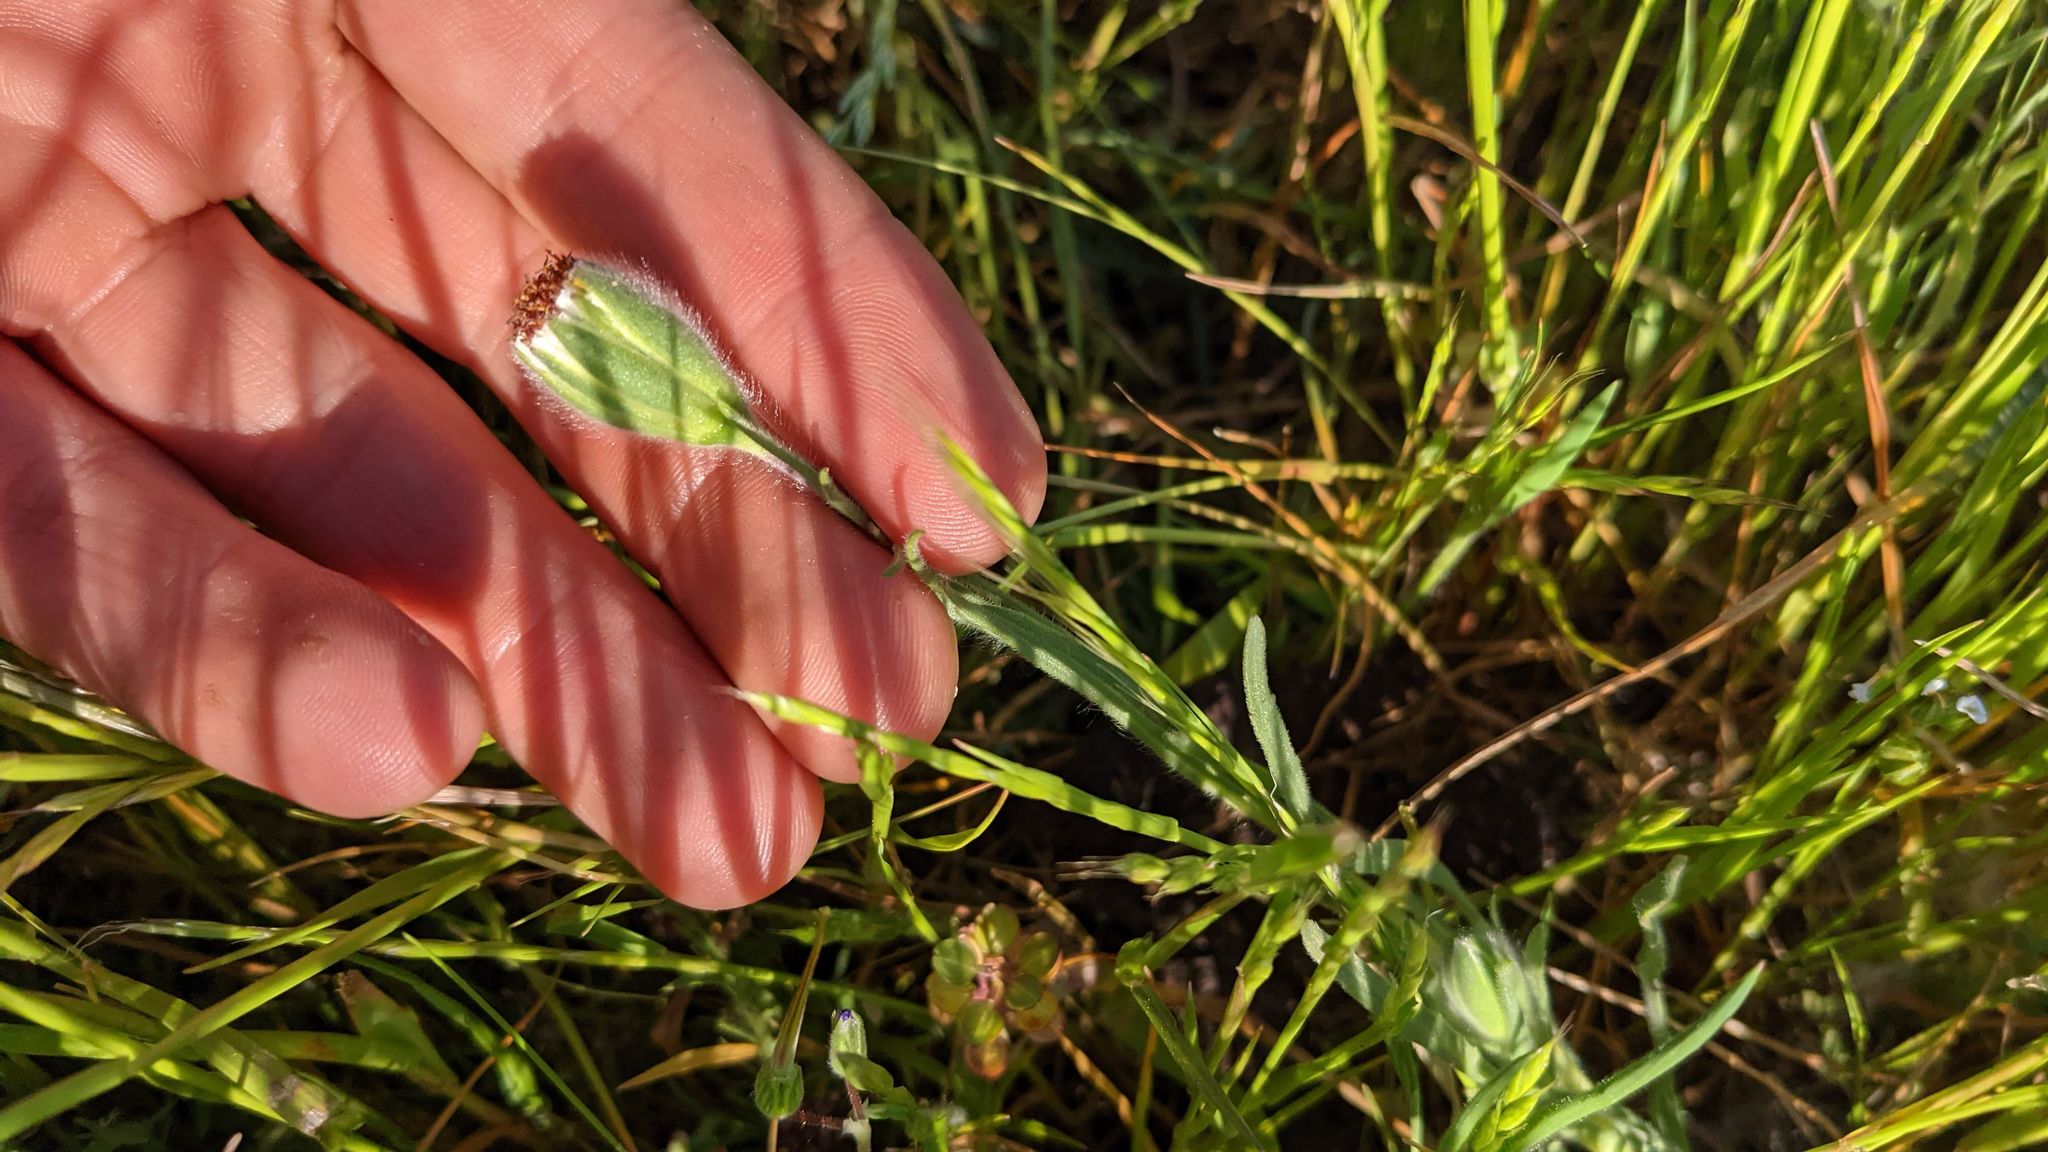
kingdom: Plantae
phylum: Tracheophyta
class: Magnoliopsida
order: Asterales
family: Asteraceae
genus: Achyrachaena
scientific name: Achyrachaena mollis
